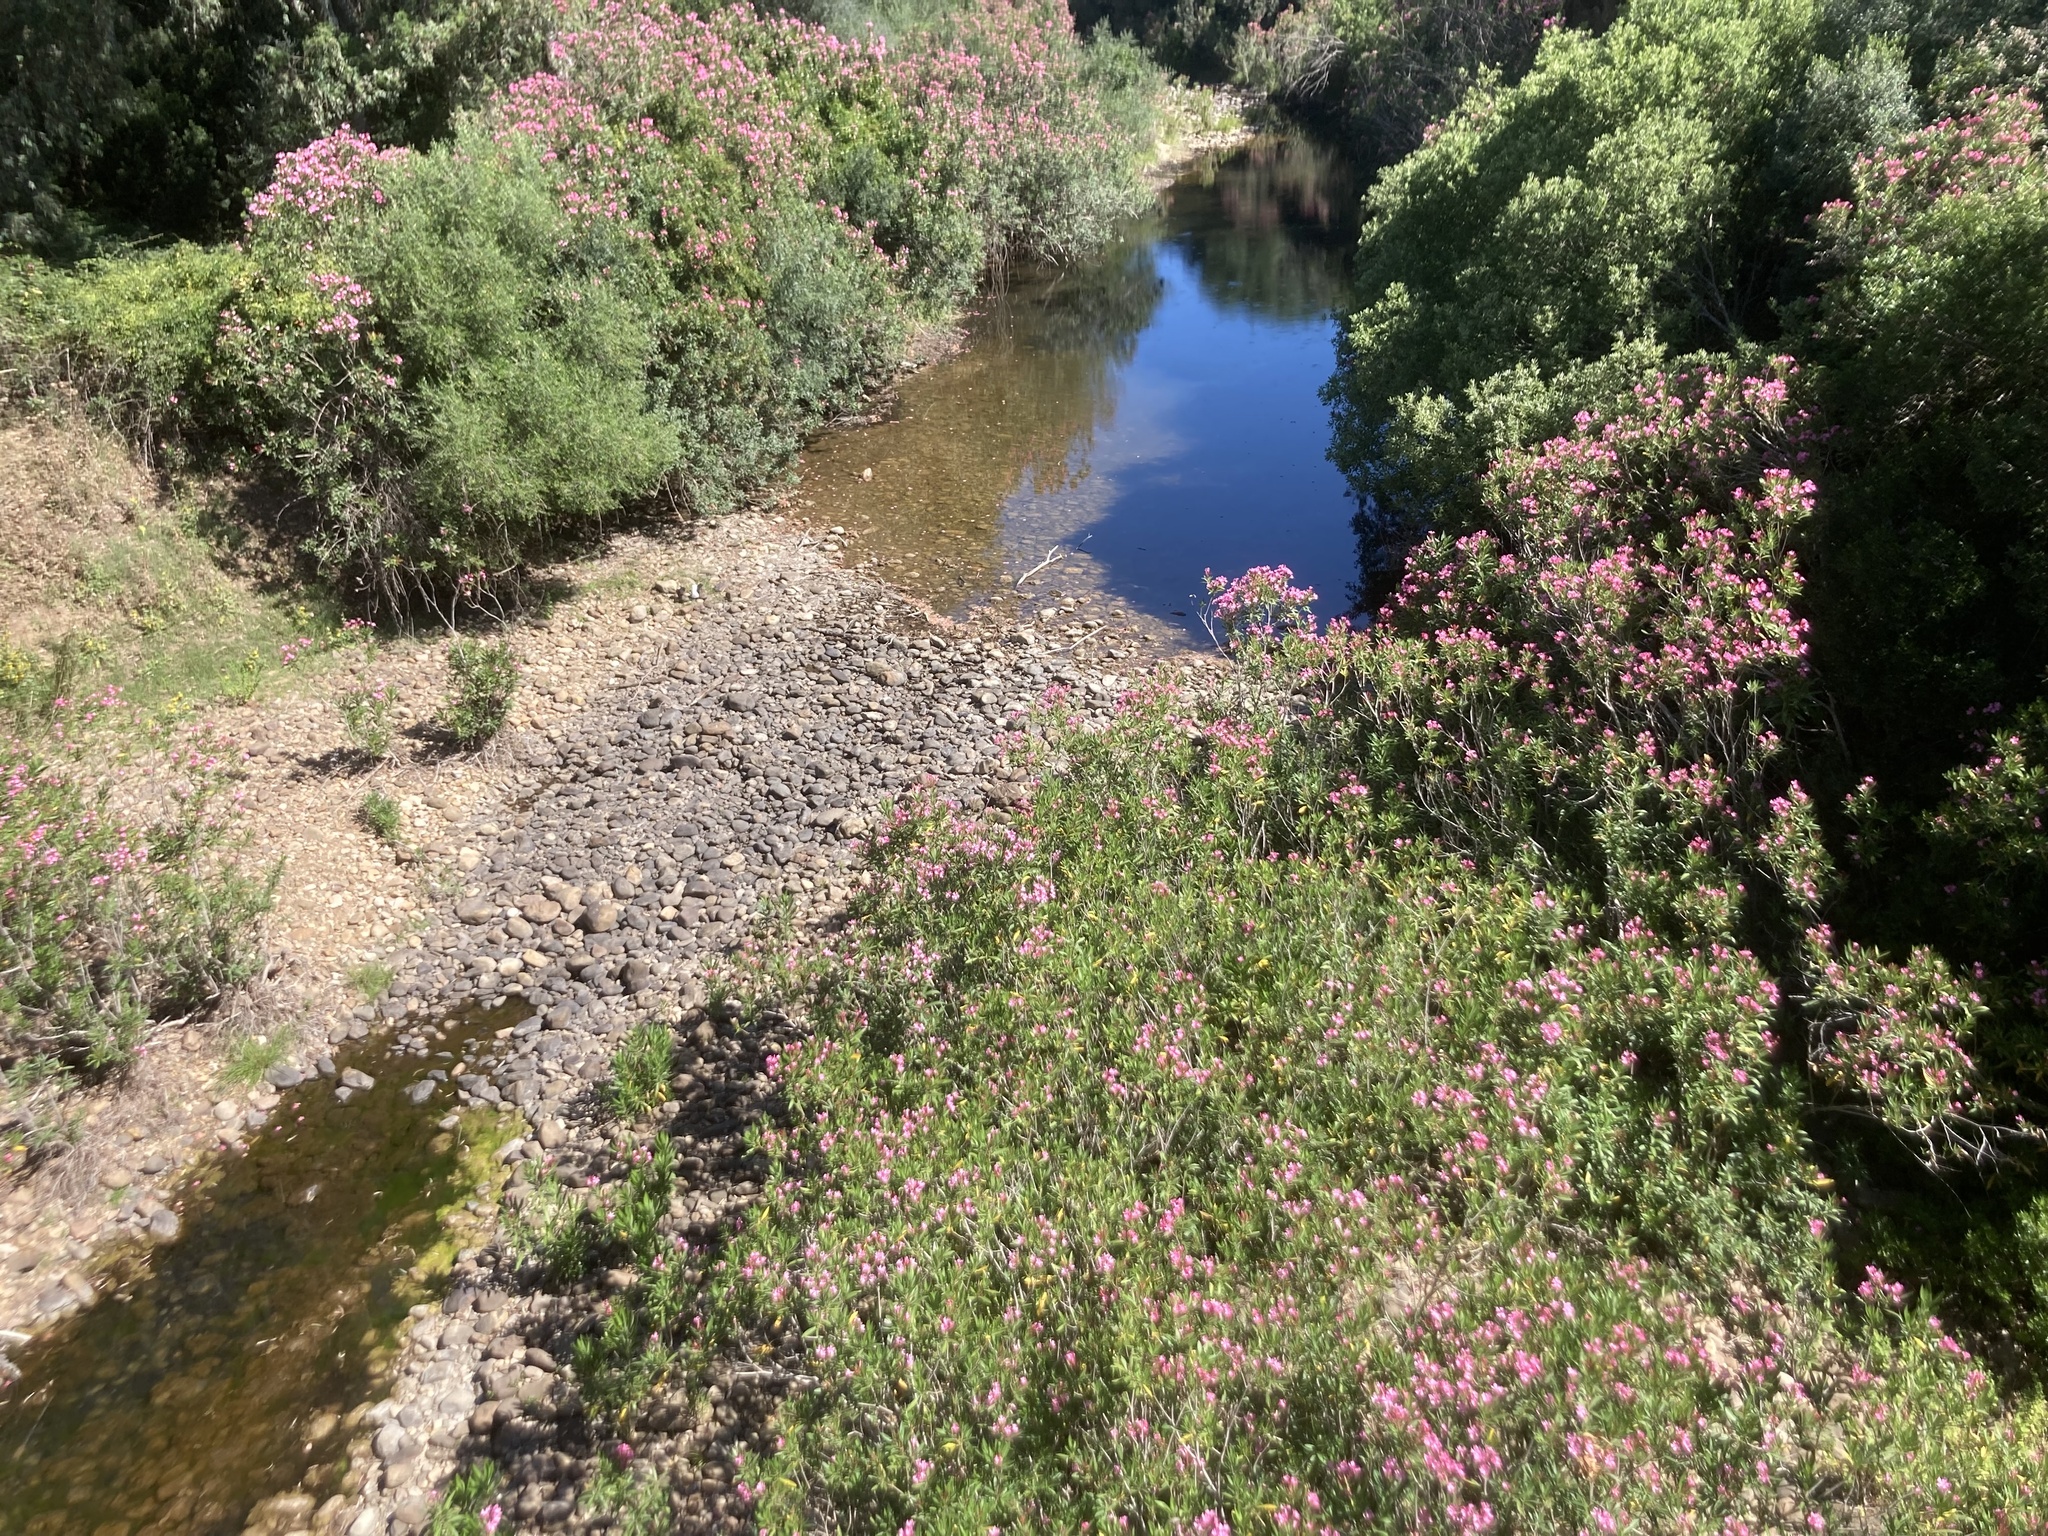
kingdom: Plantae
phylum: Tracheophyta
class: Magnoliopsida
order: Gentianales
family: Apocynaceae
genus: Nerium
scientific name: Nerium oleander
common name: Oleander
